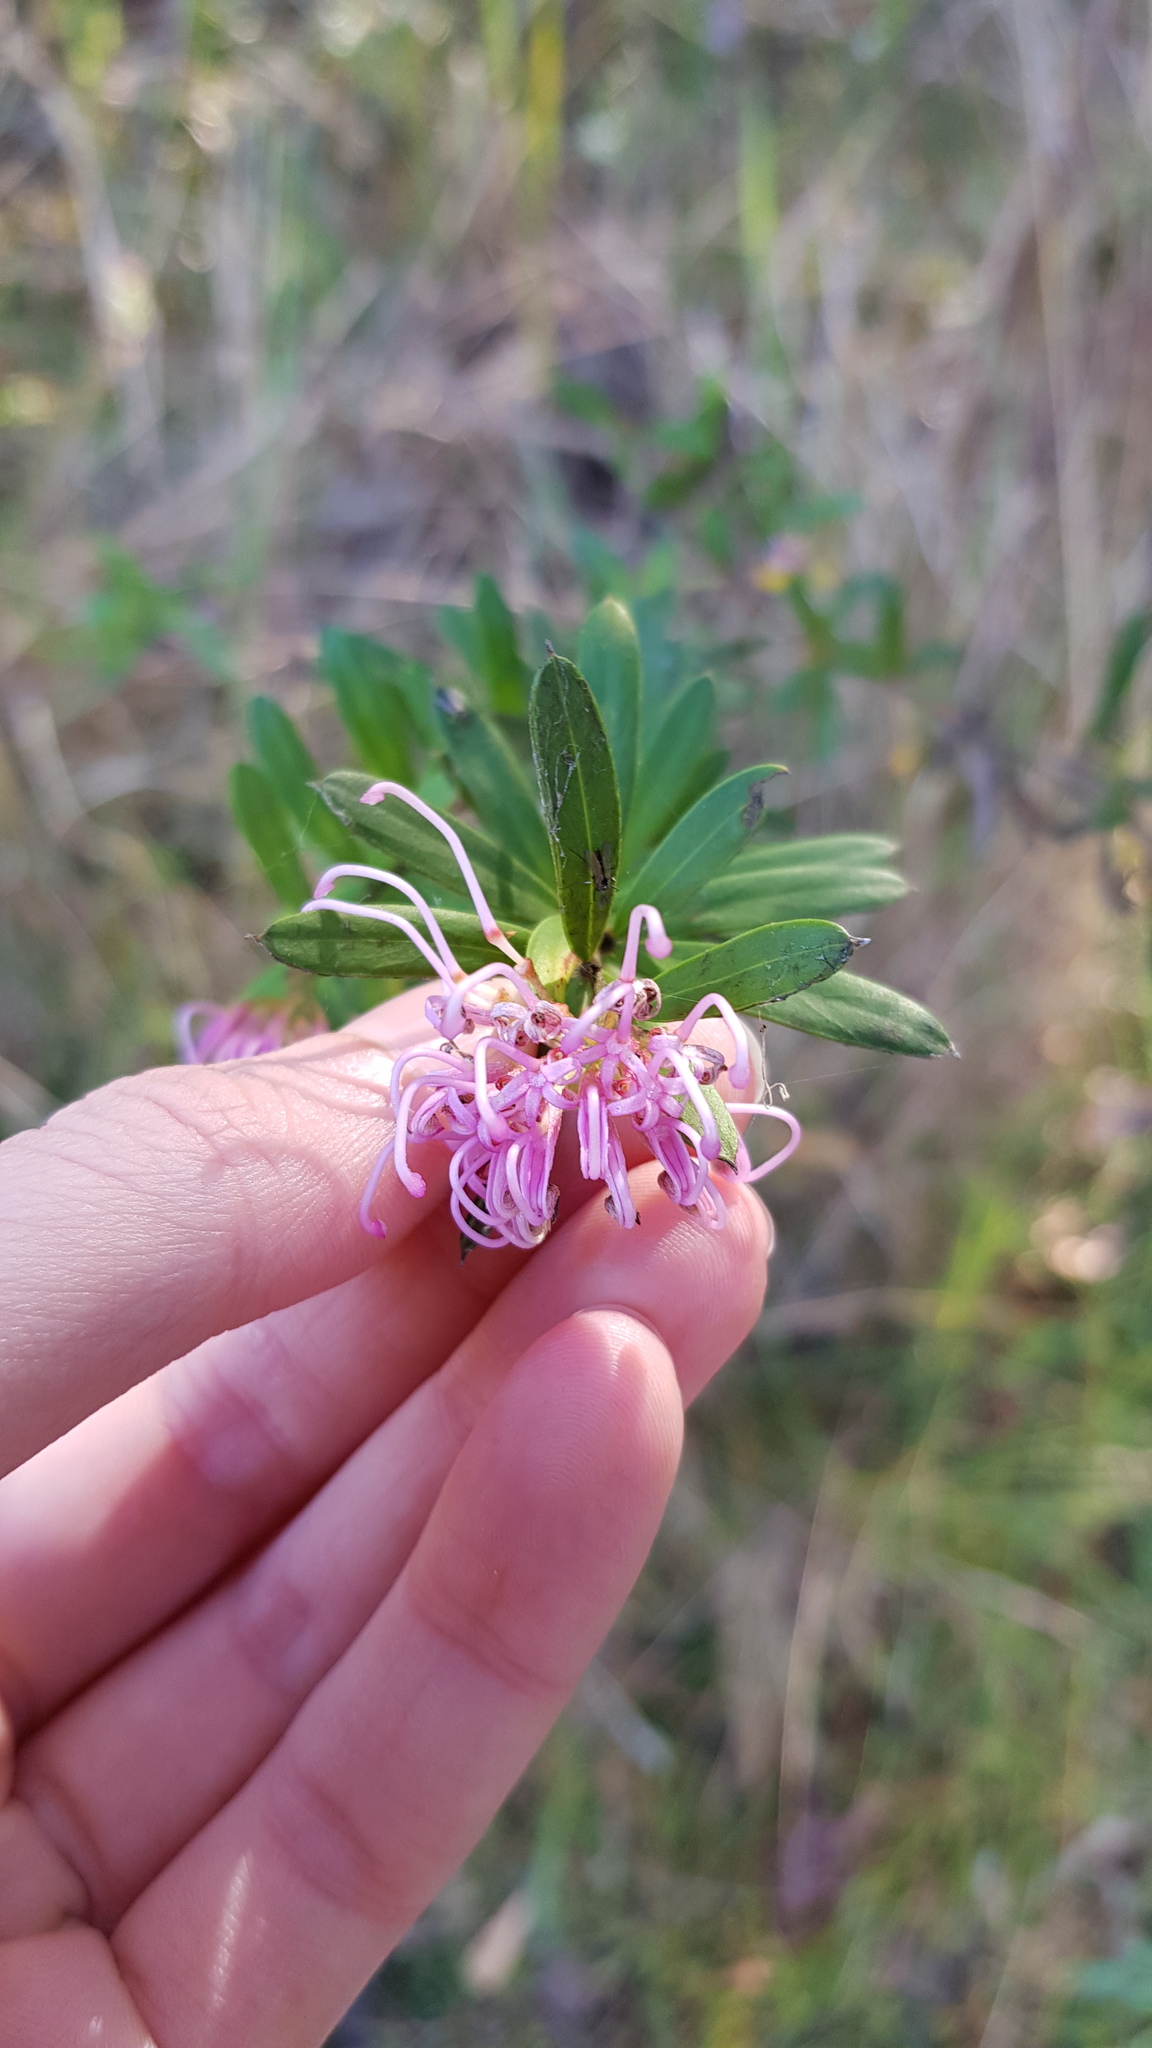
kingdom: Plantae
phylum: Tracheophyta
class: Magnoliopsida
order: Proteales
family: Proteaceae
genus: Grevillea
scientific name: Grevillea sericea
